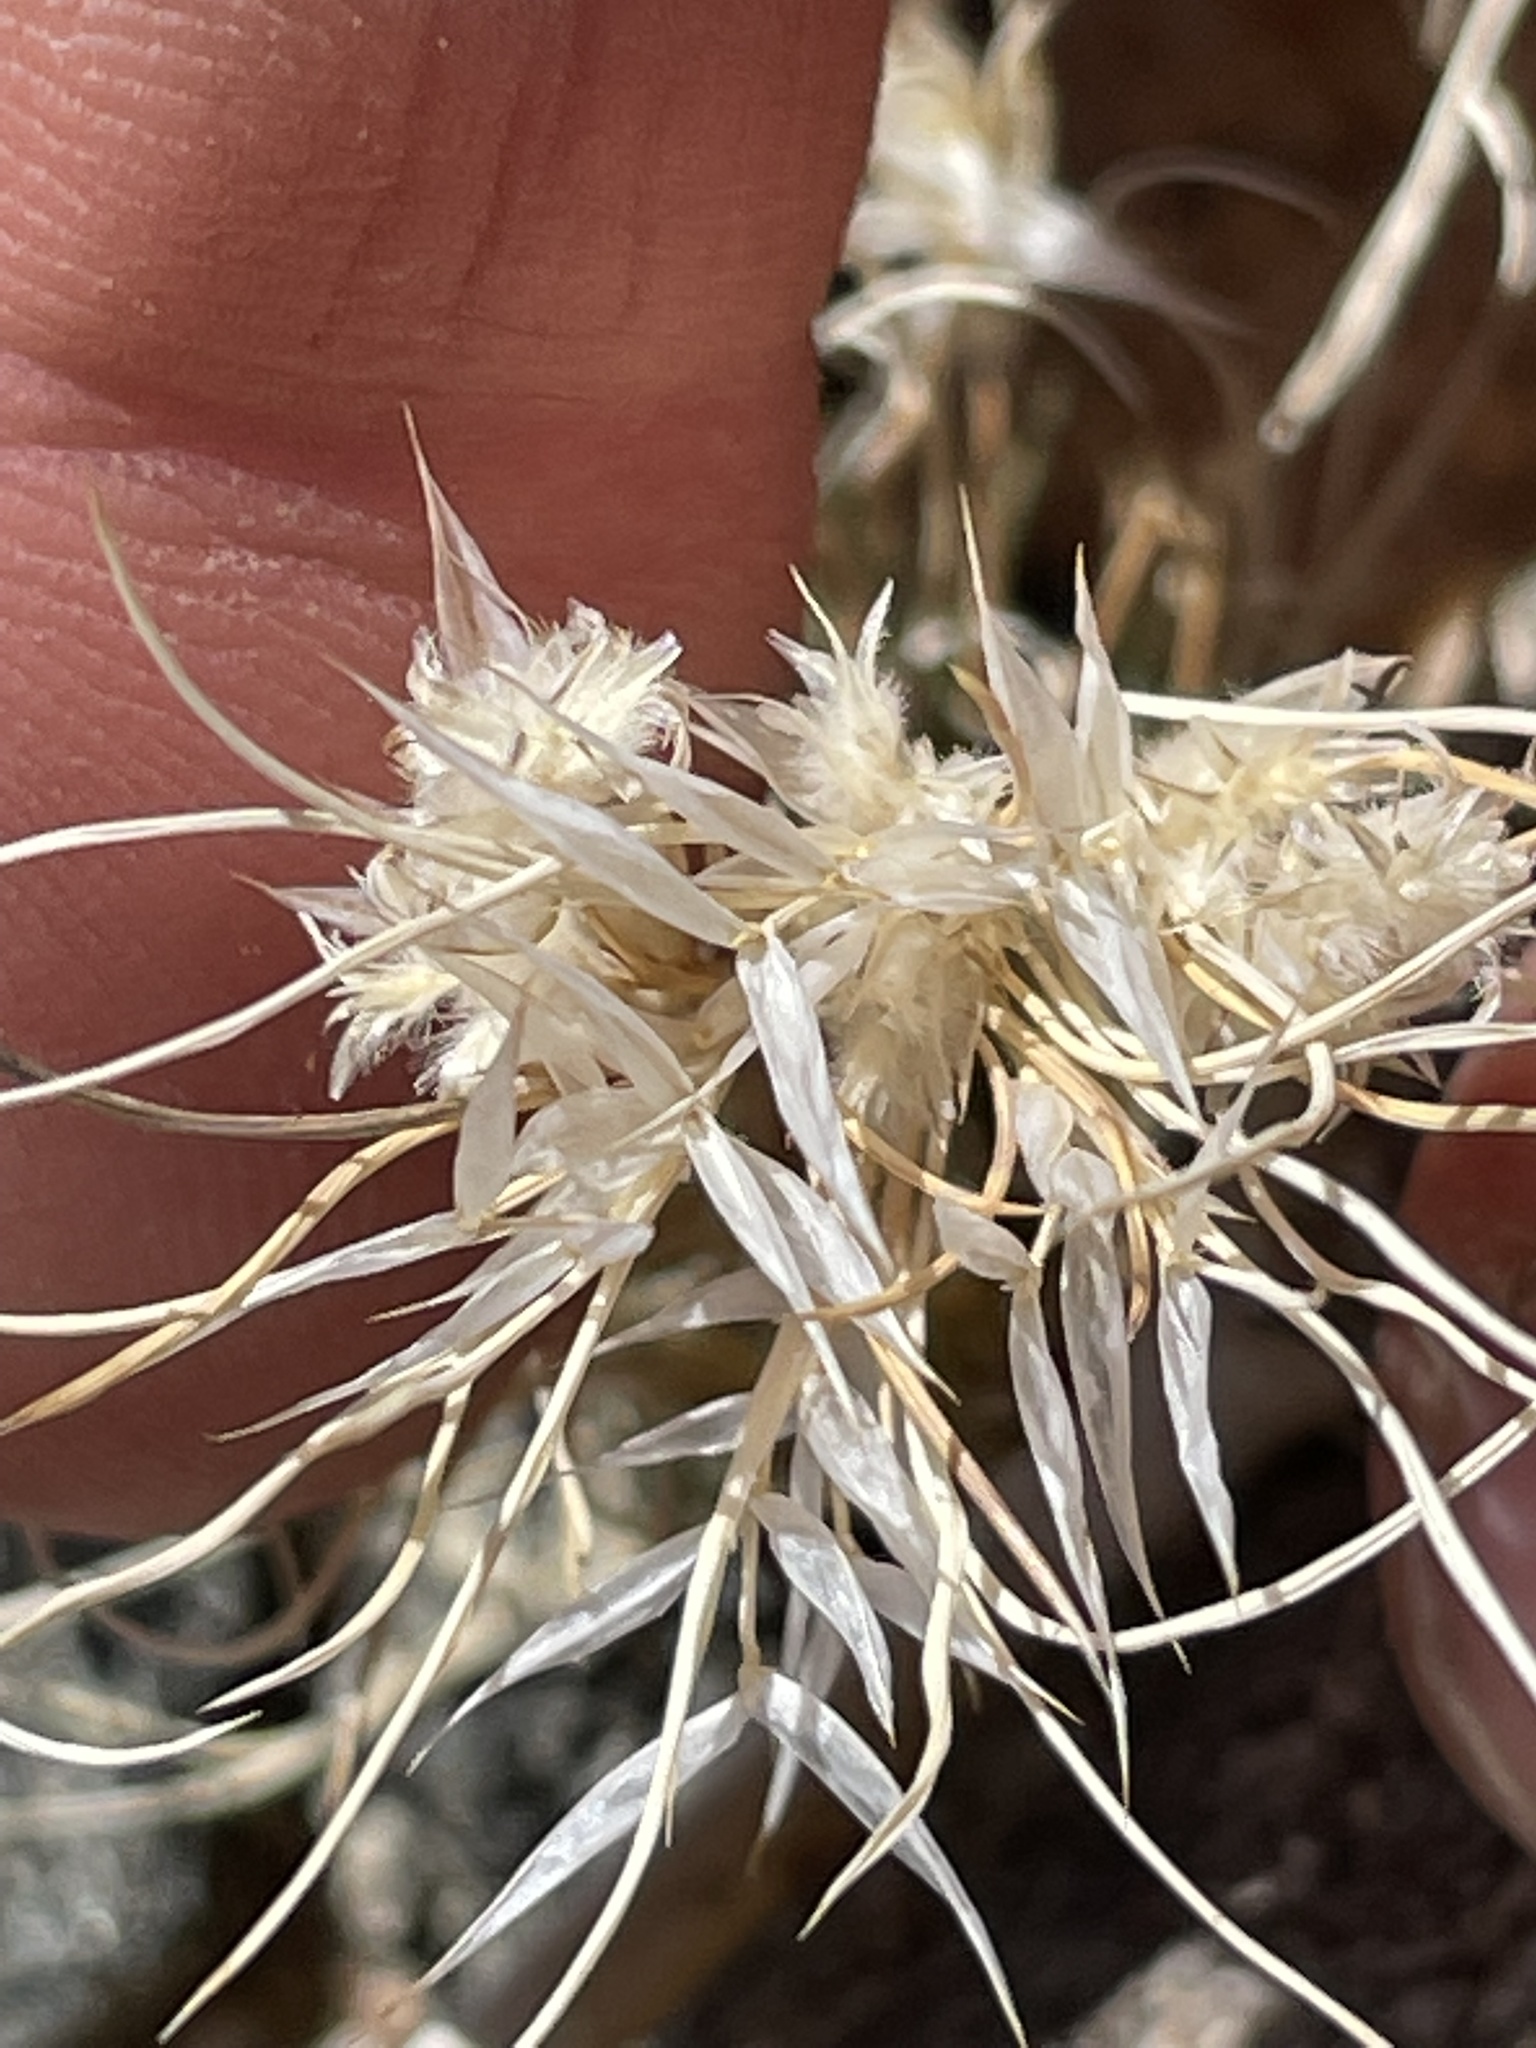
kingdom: Plantae
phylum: Tracheophyta
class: Liliopsida
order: Poales
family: Poaceae
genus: Dasyochloa
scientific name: Dasyochloa pulchella
